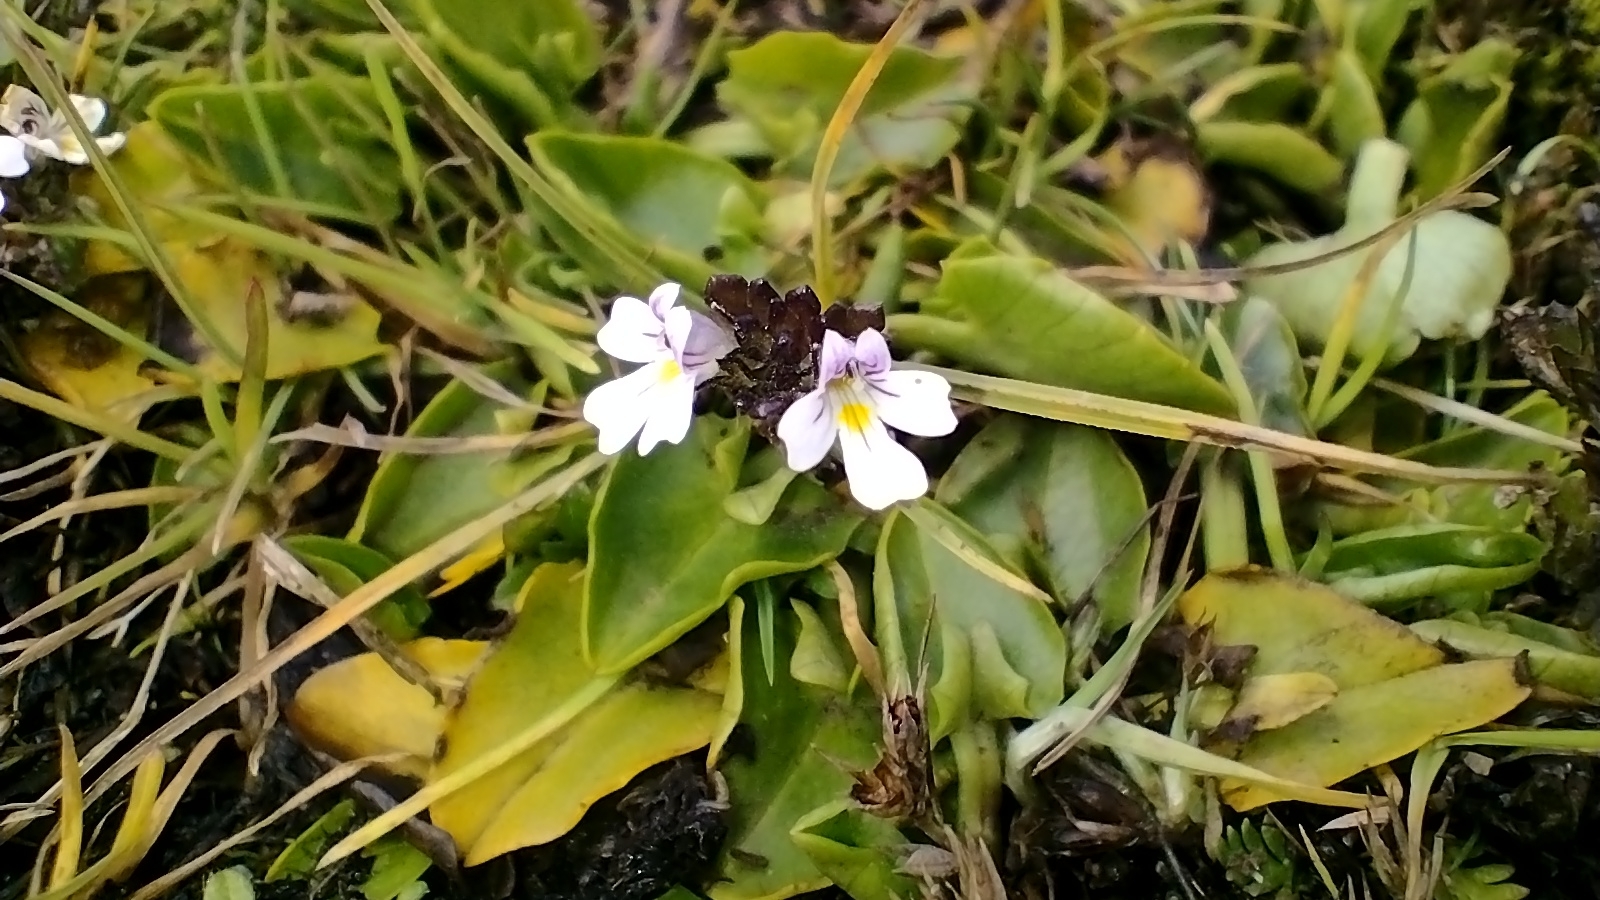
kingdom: Plantae
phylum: Tracheophyta
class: Magnoliopsida
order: Lamiales
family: Orobanchaceae
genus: Euphrasia
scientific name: Euphrasia officinalis
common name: Eyebright
